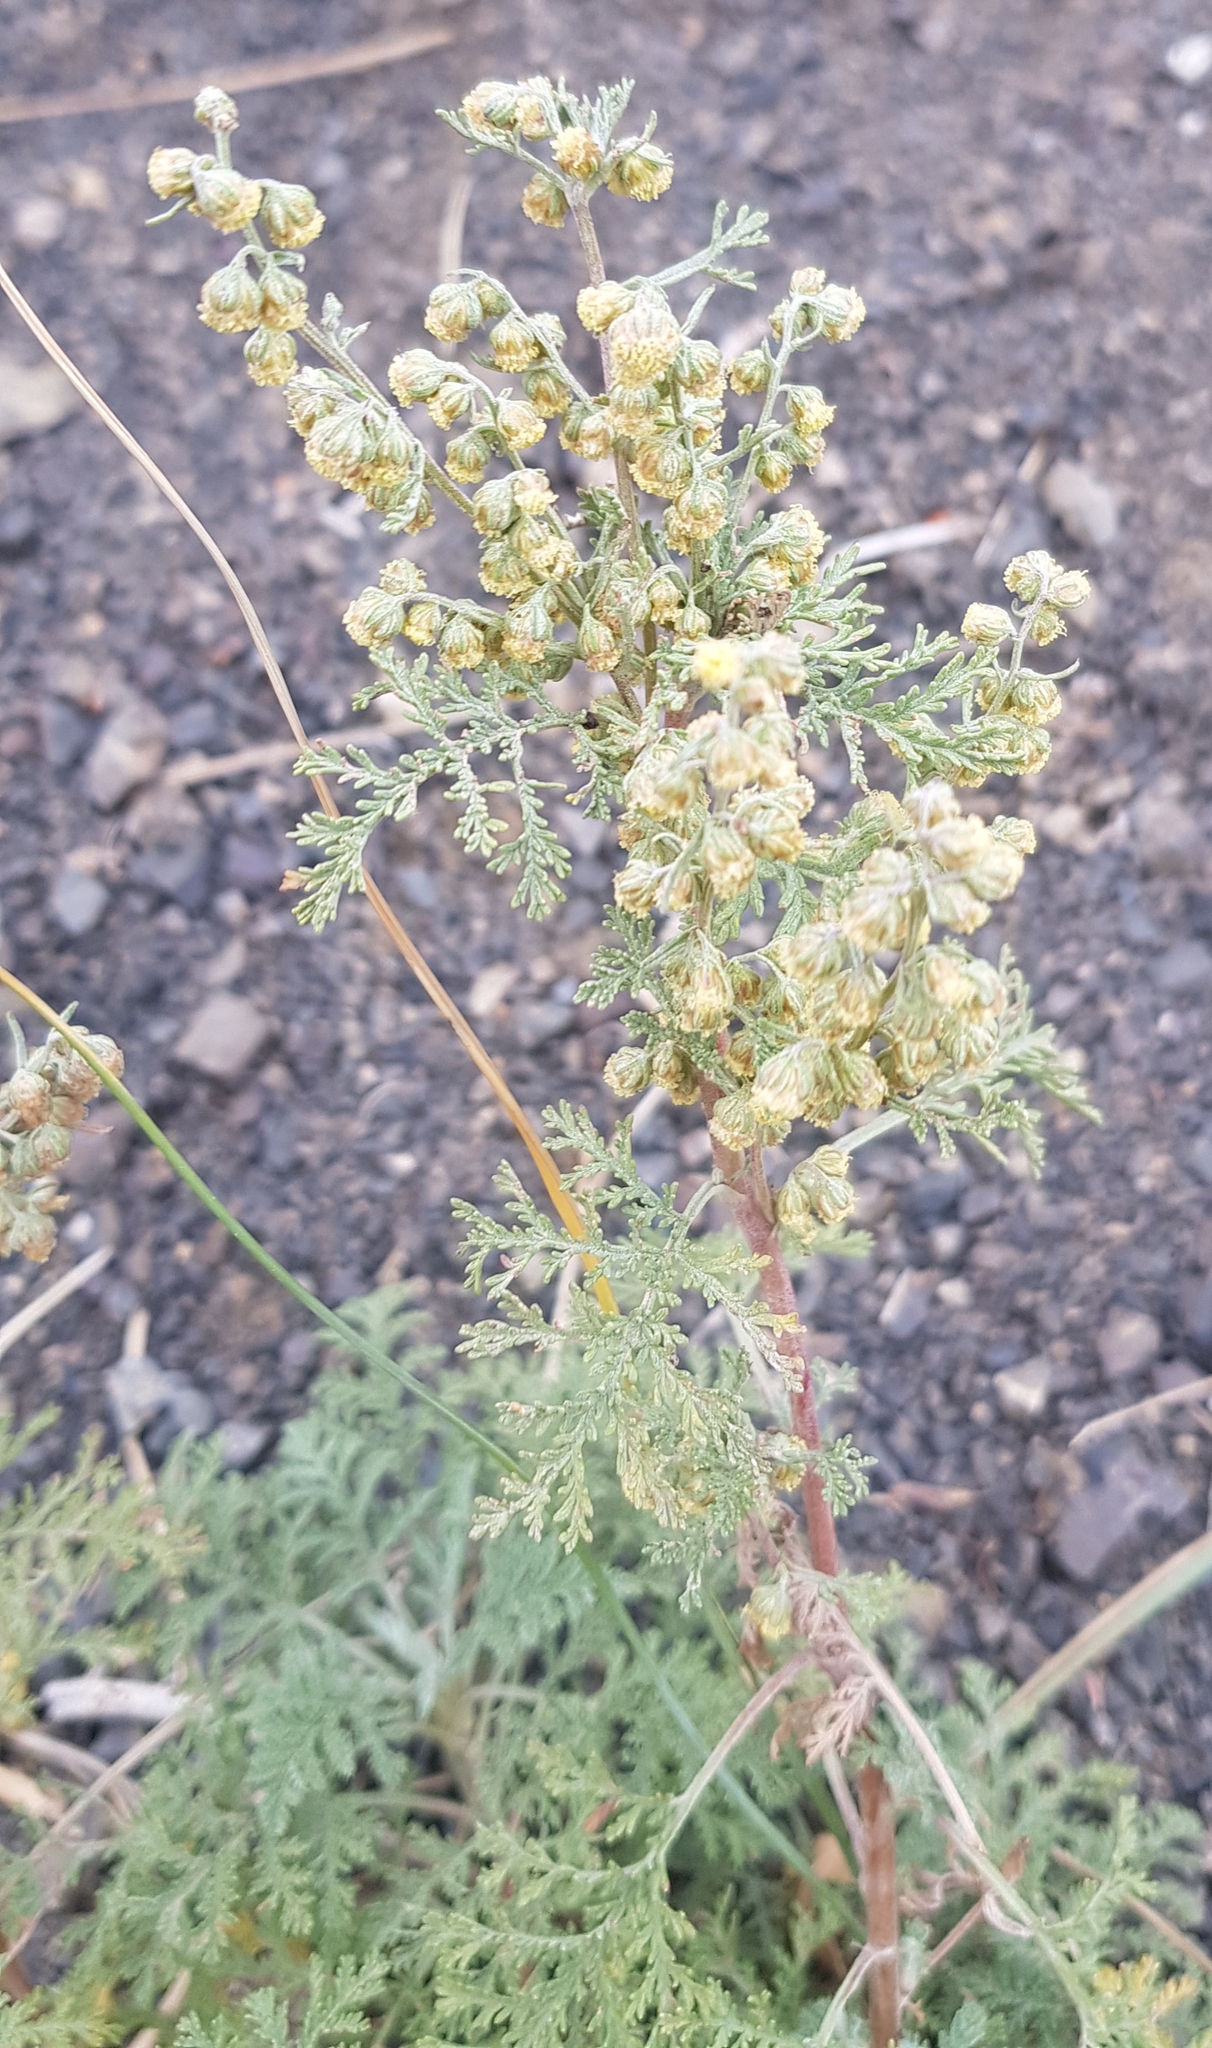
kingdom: Plantae
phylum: Tracheophyta
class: Magnoliopsida
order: Asterales
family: Asteraceae
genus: Artemisia
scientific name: Artemisia
